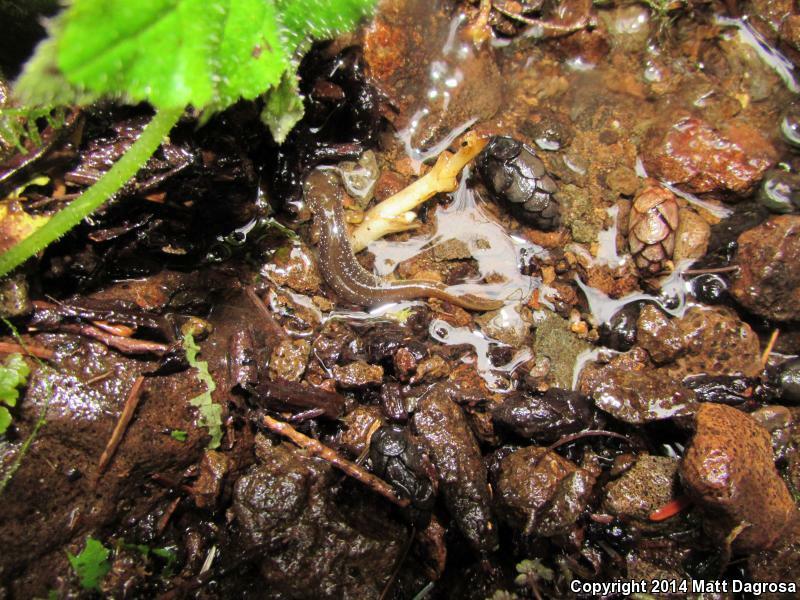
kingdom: Animalia
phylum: Chordata
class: Amphibia
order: Caudata
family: Rhyacotritonidae
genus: Rhyacotriton
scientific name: Rhyacotriton kezeri
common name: Columbia torrent salamander
